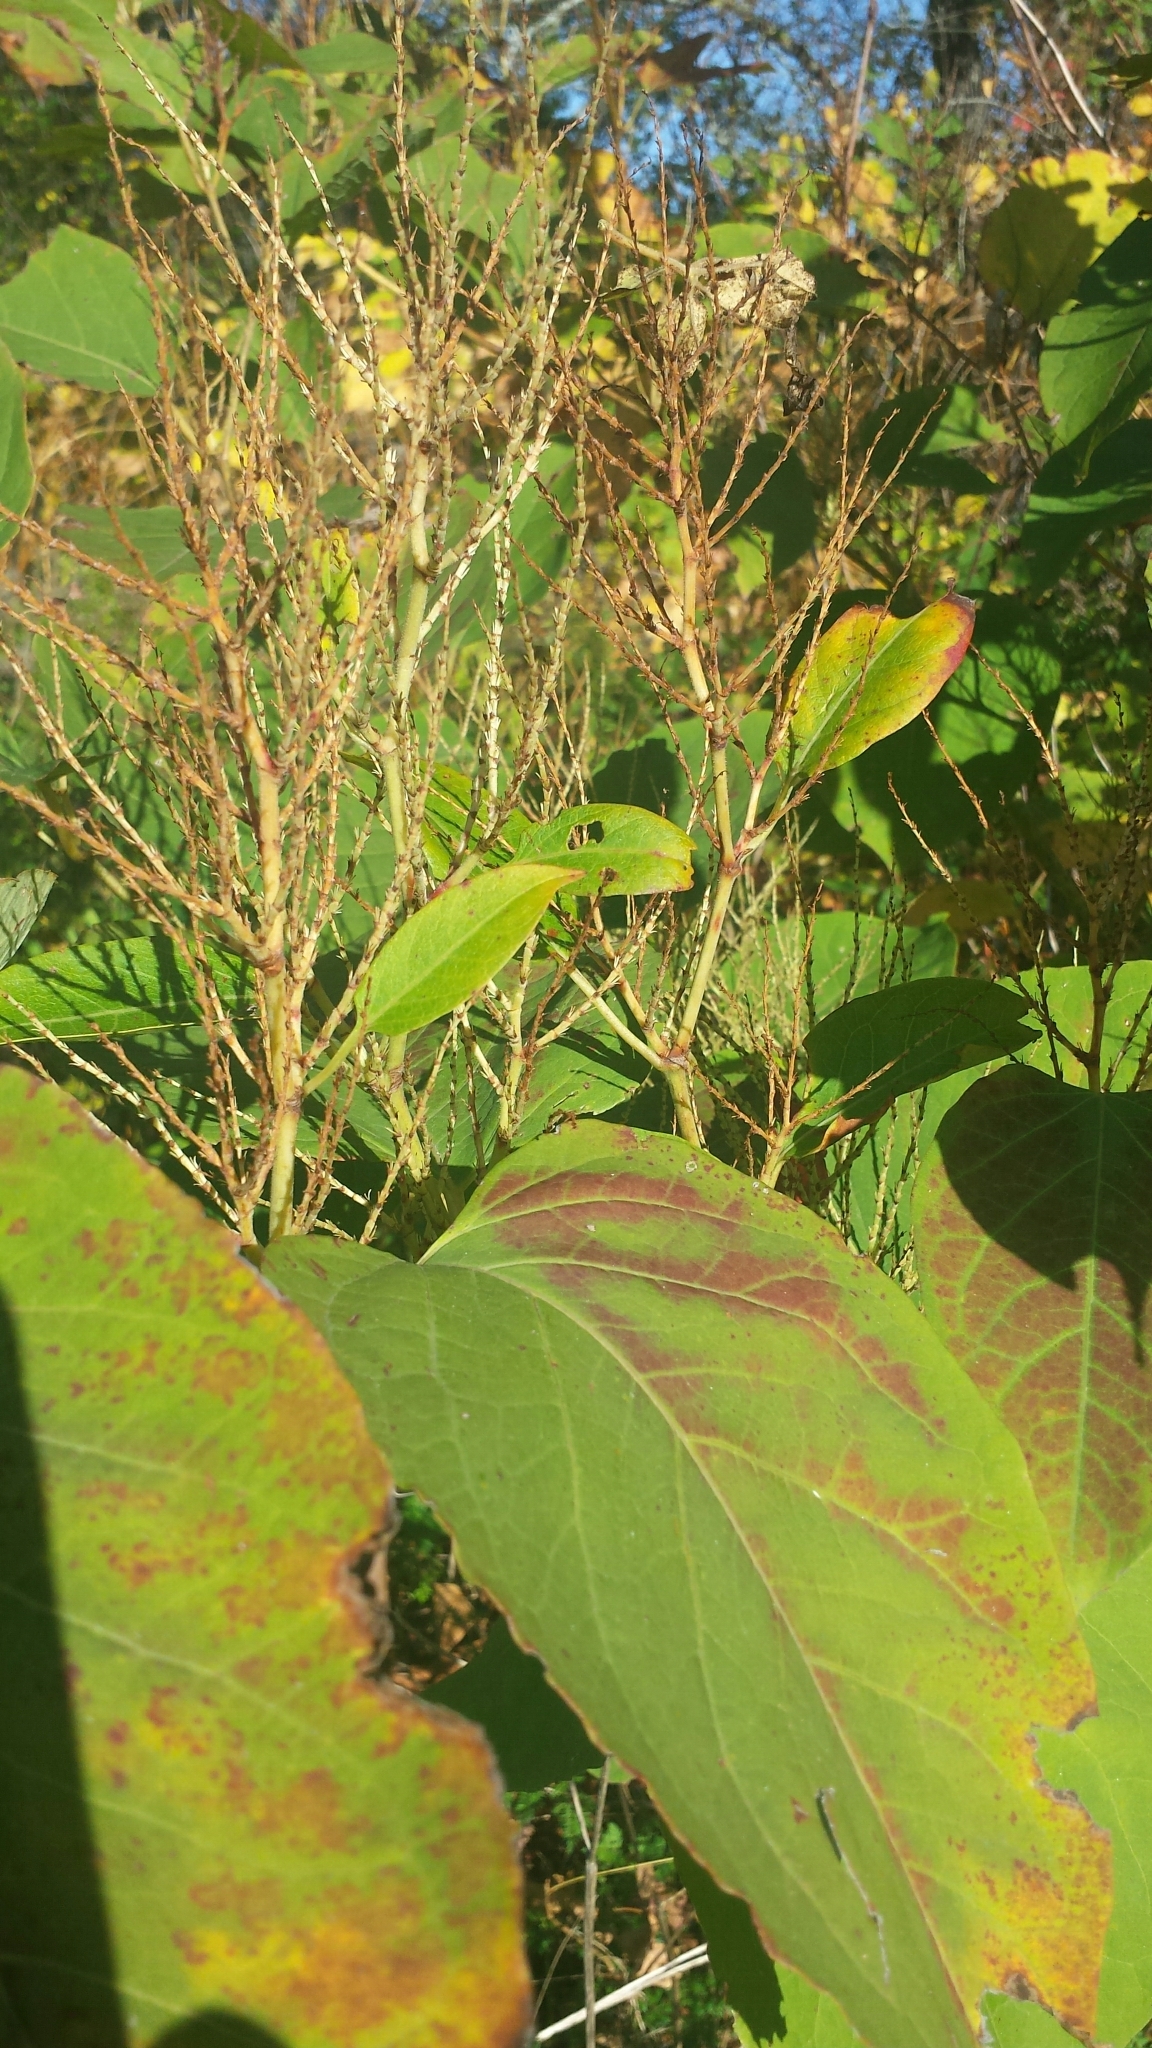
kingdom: Plantae
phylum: Tracheophyta
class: Magnoliopsida
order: Caryophyllales
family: Polygonaceae
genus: Reynoutria
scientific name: Reynoutria japonica
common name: Japanese knotweed
